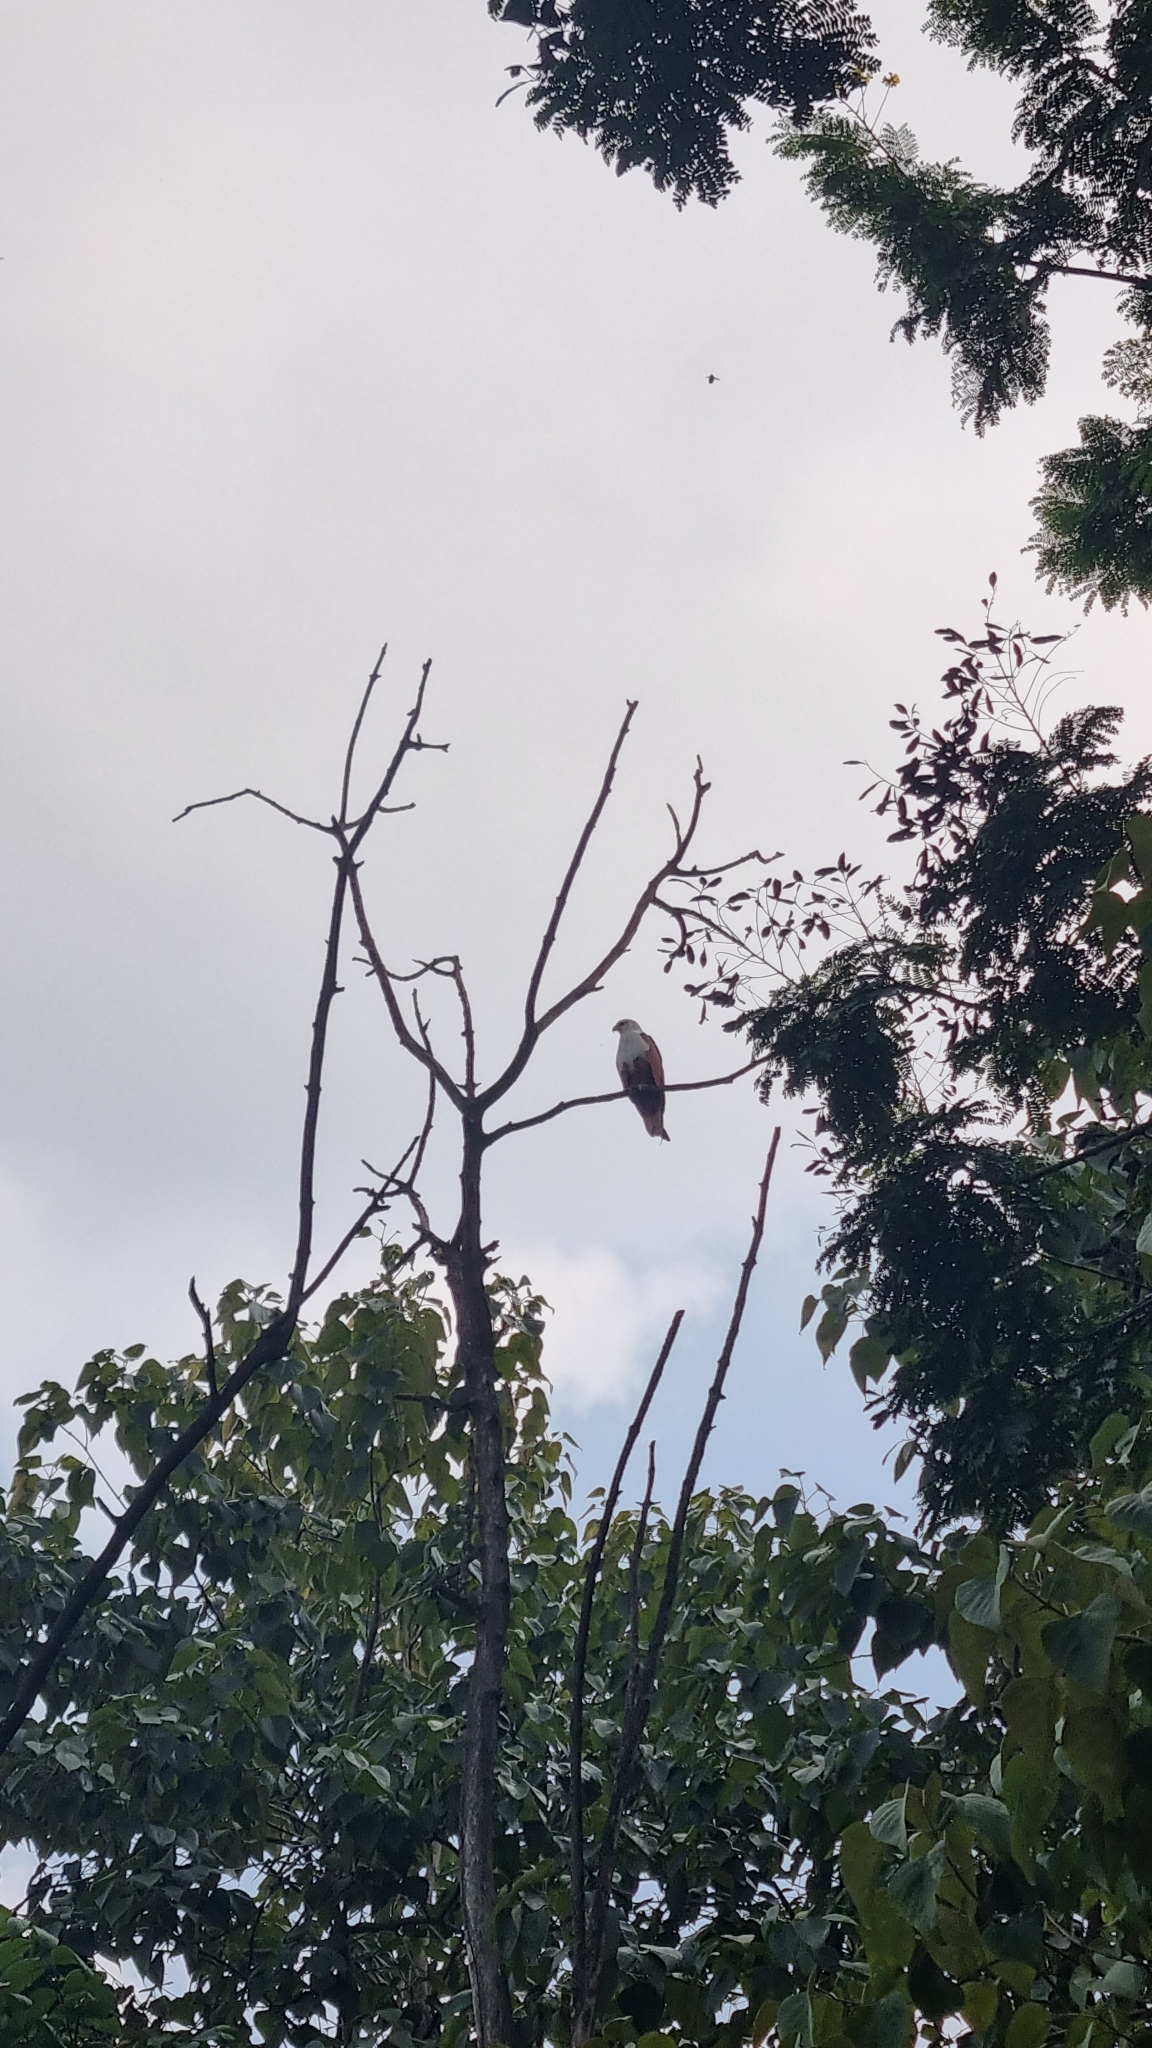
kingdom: Animalia
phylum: Chordata
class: Aves
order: Accipitriformes
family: Accipitridae
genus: Haliastur
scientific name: Haliastur indus
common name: Brahminy kite
